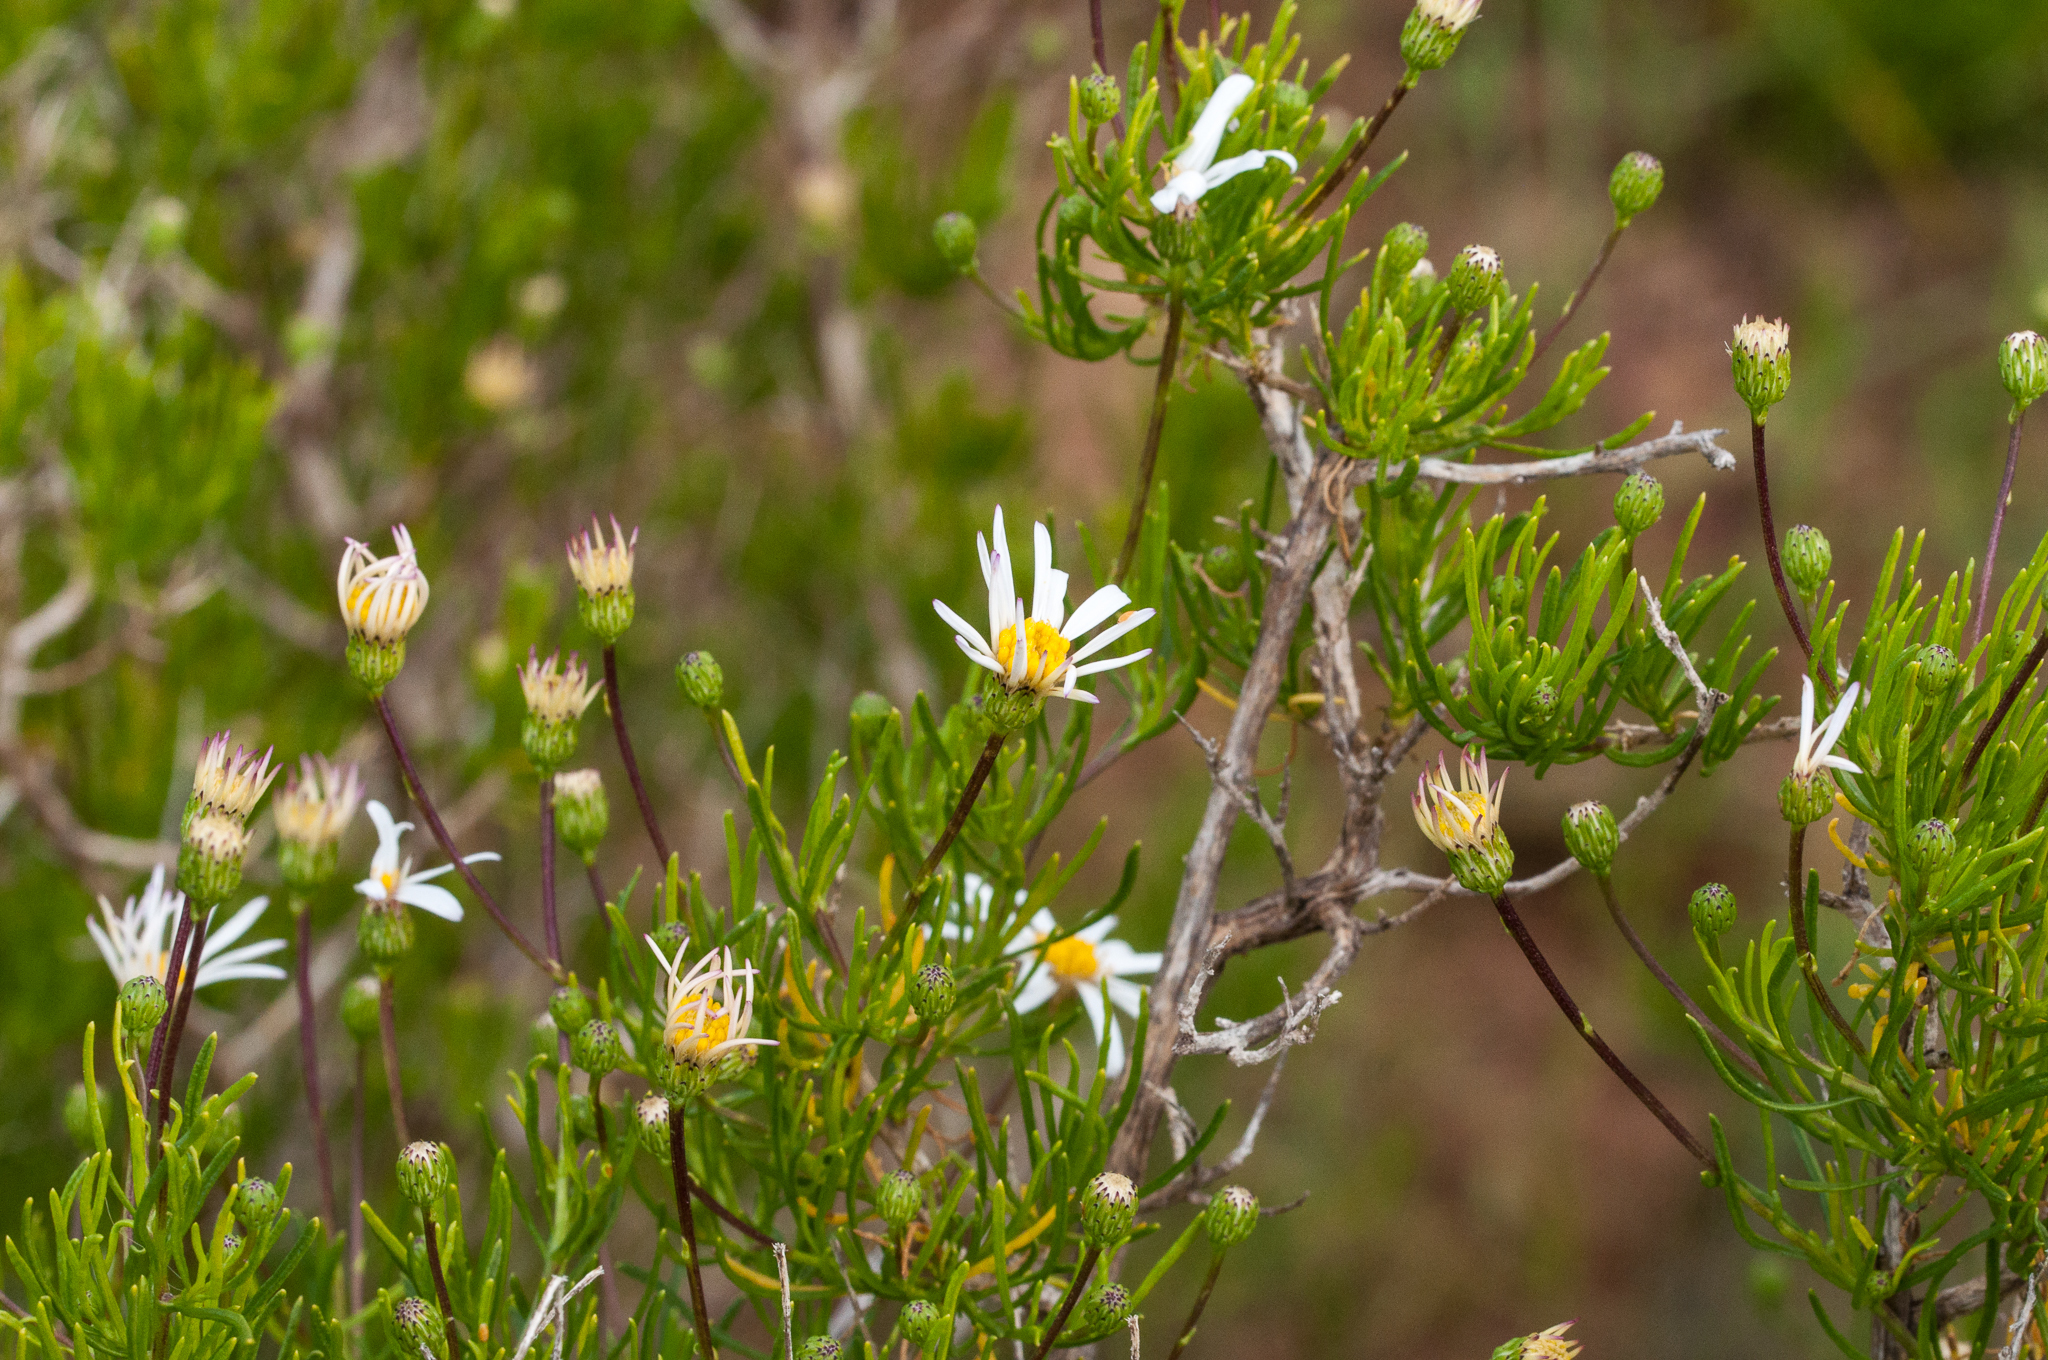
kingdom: Plantae
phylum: Tracheophyta
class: Magnoliopsida
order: Asterales
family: Asteraceae
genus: Felicia
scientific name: Felicia filifolia
